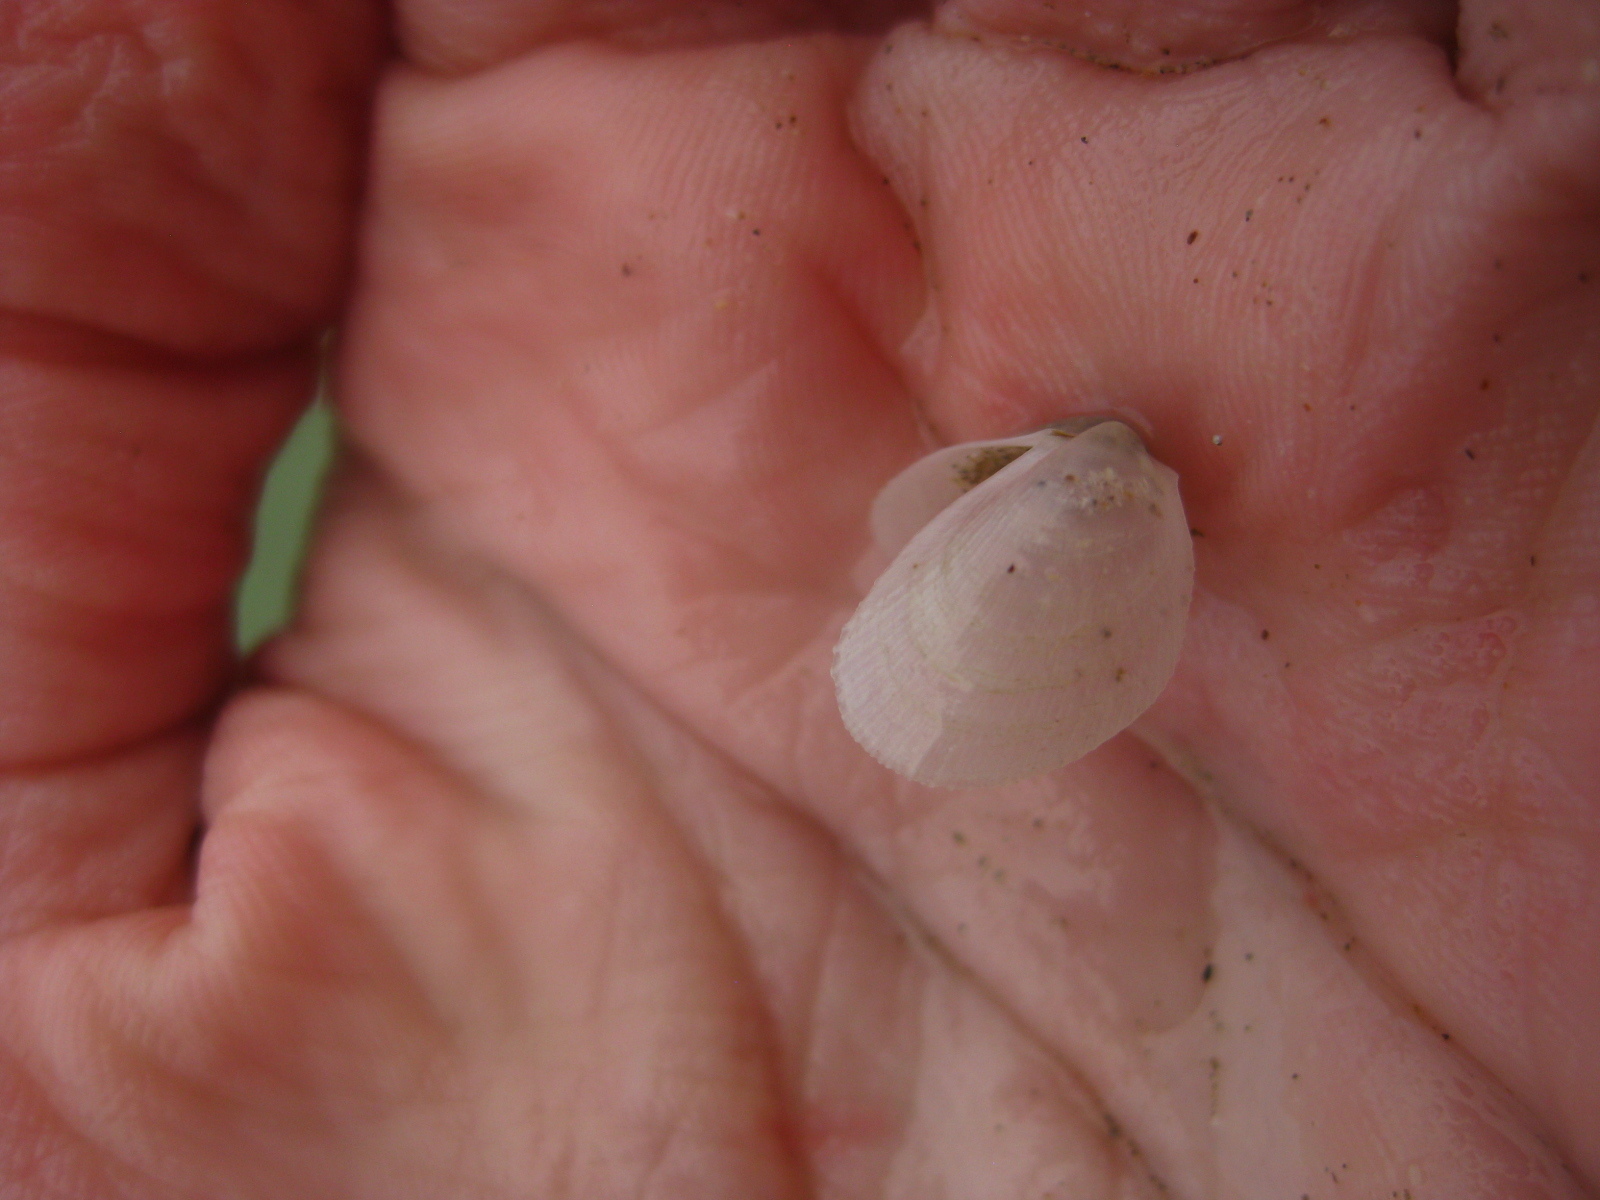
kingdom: Animalia
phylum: Mollusca
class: Bivalvia
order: Limida
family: Limidae
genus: Limaria
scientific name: Limaria orientalis
